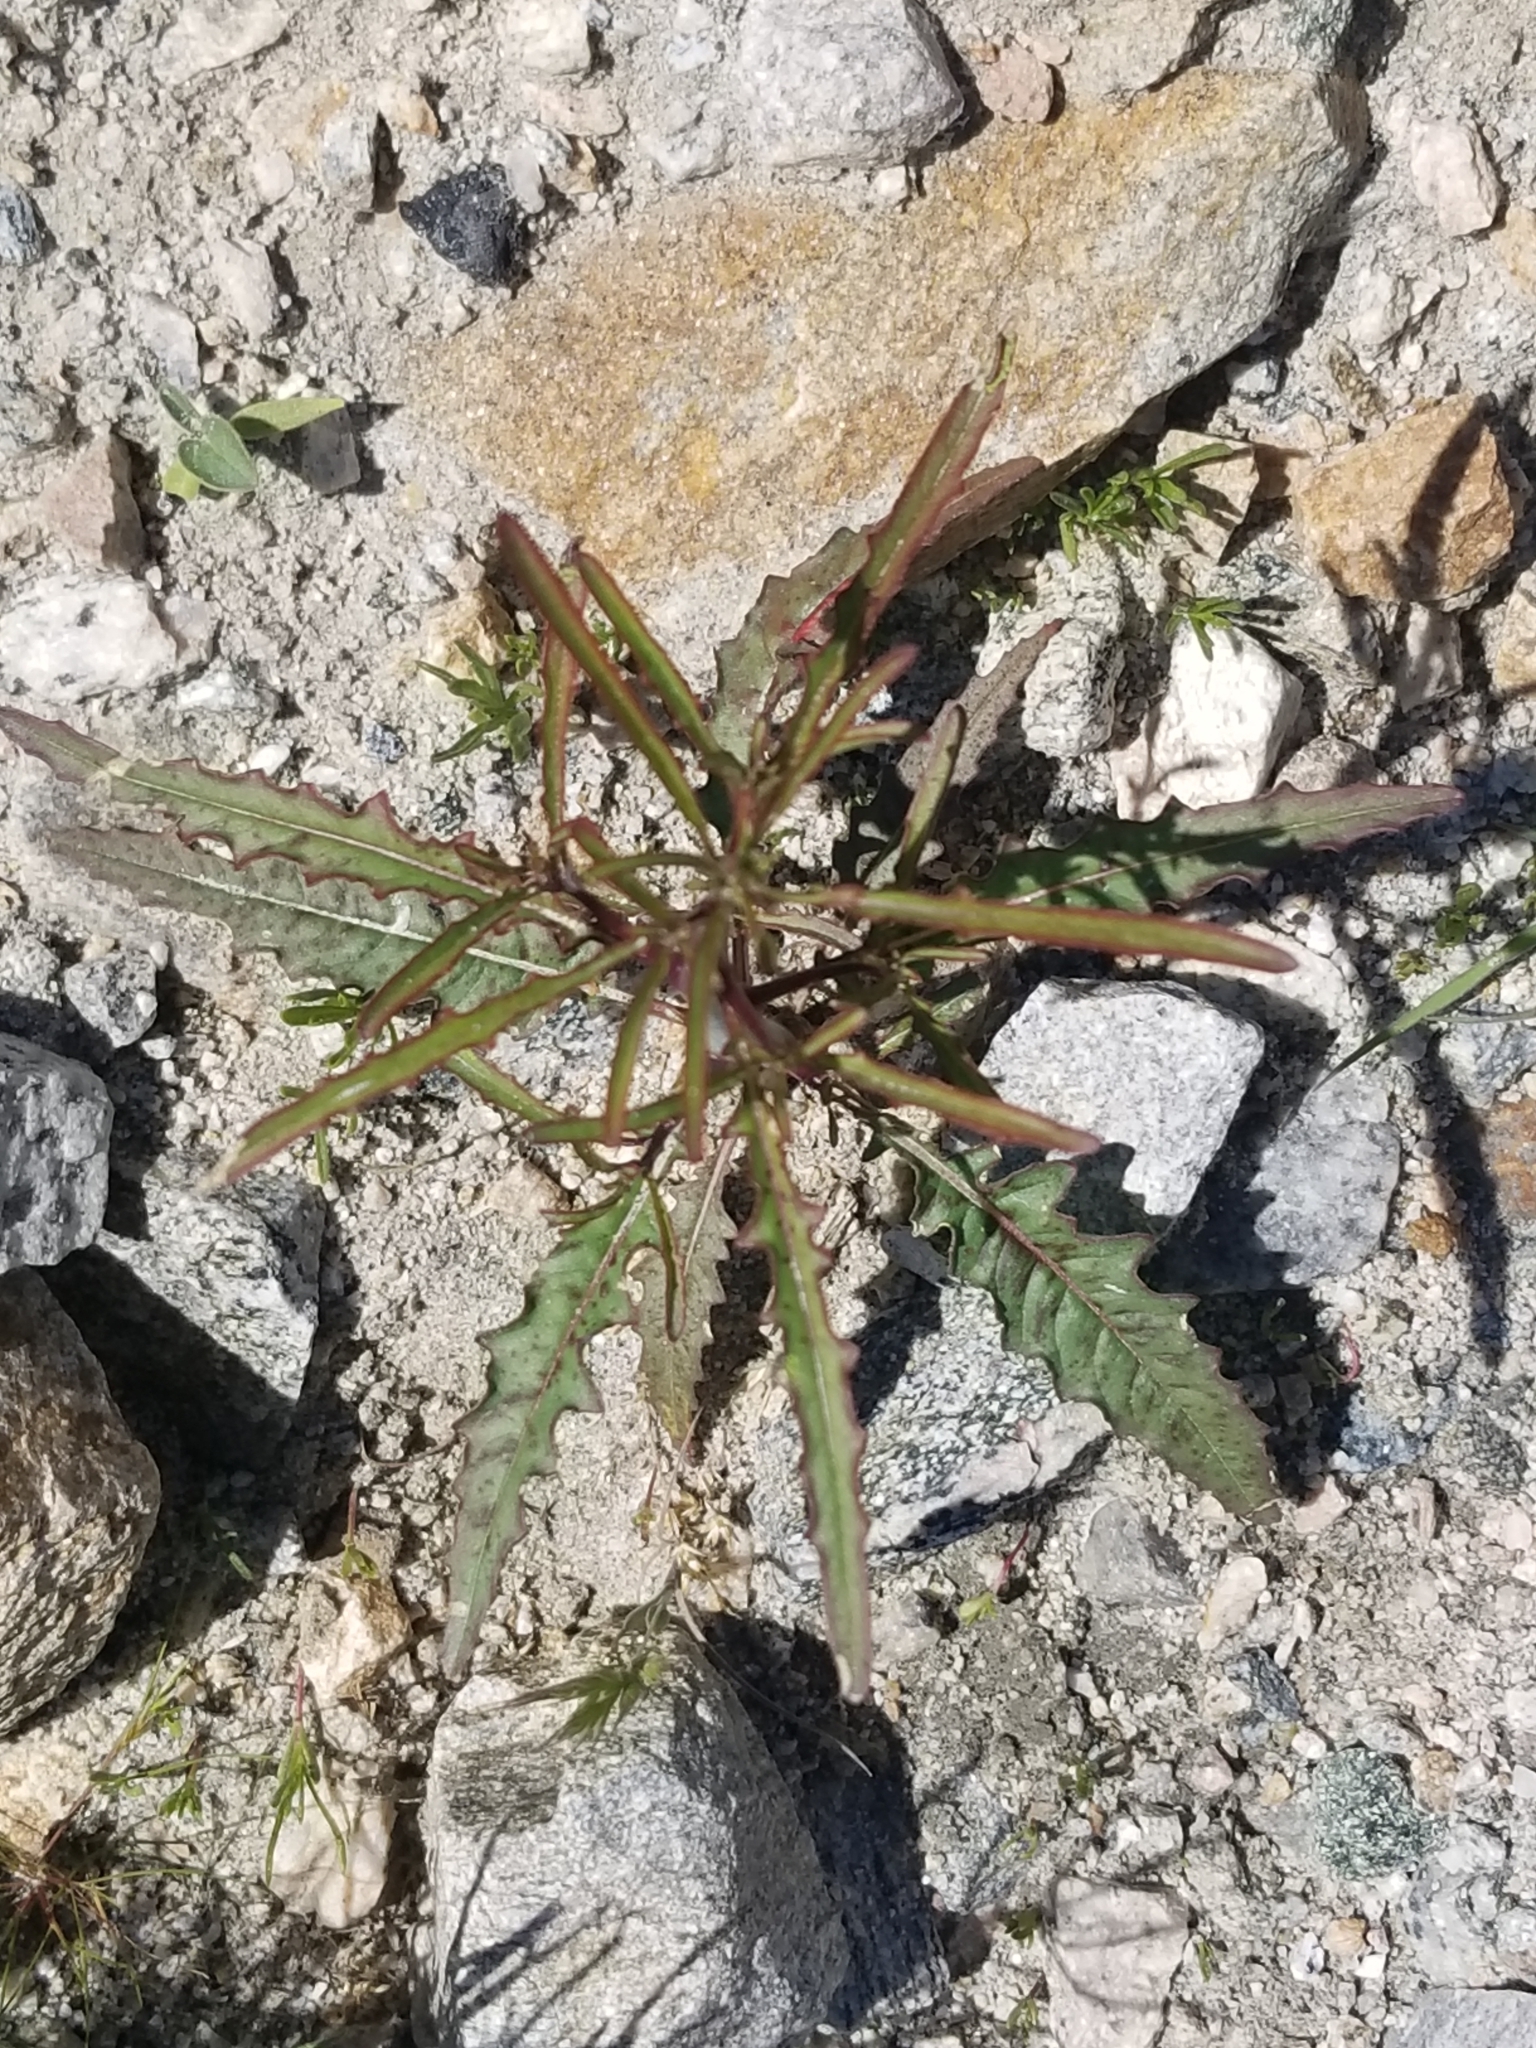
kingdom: Plantae
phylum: Tracheophyta
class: Magnoliopsida
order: Myrtales
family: Onagraceae
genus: Eulobus
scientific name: Eulobus californicus
